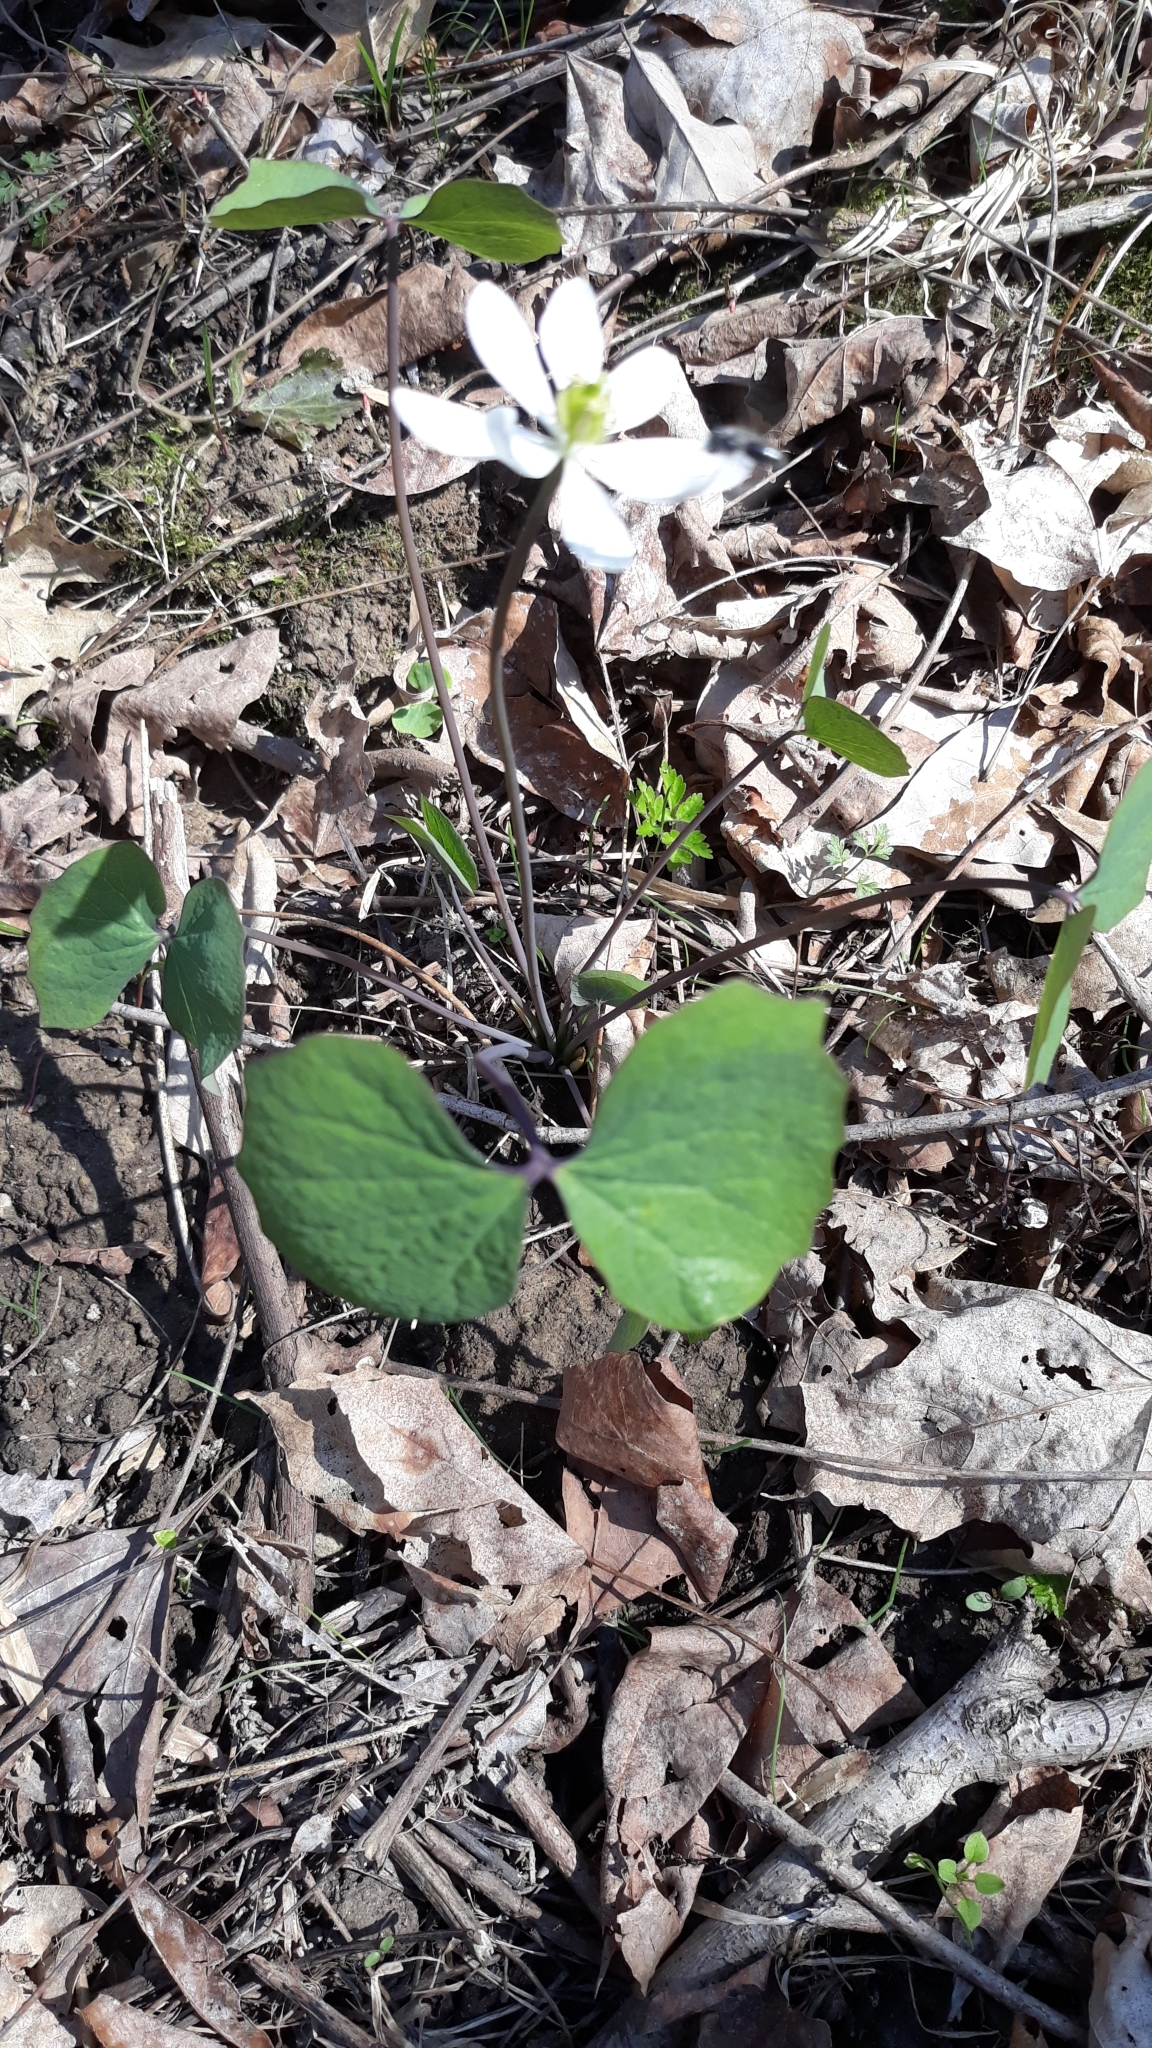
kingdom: Plantae
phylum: Tracheophyta
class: Magnoliopsida
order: Ranunculales
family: Berberidaceae
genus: Jeffersonia
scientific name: Jeffersonia diphylla
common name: Rheumatism-root
